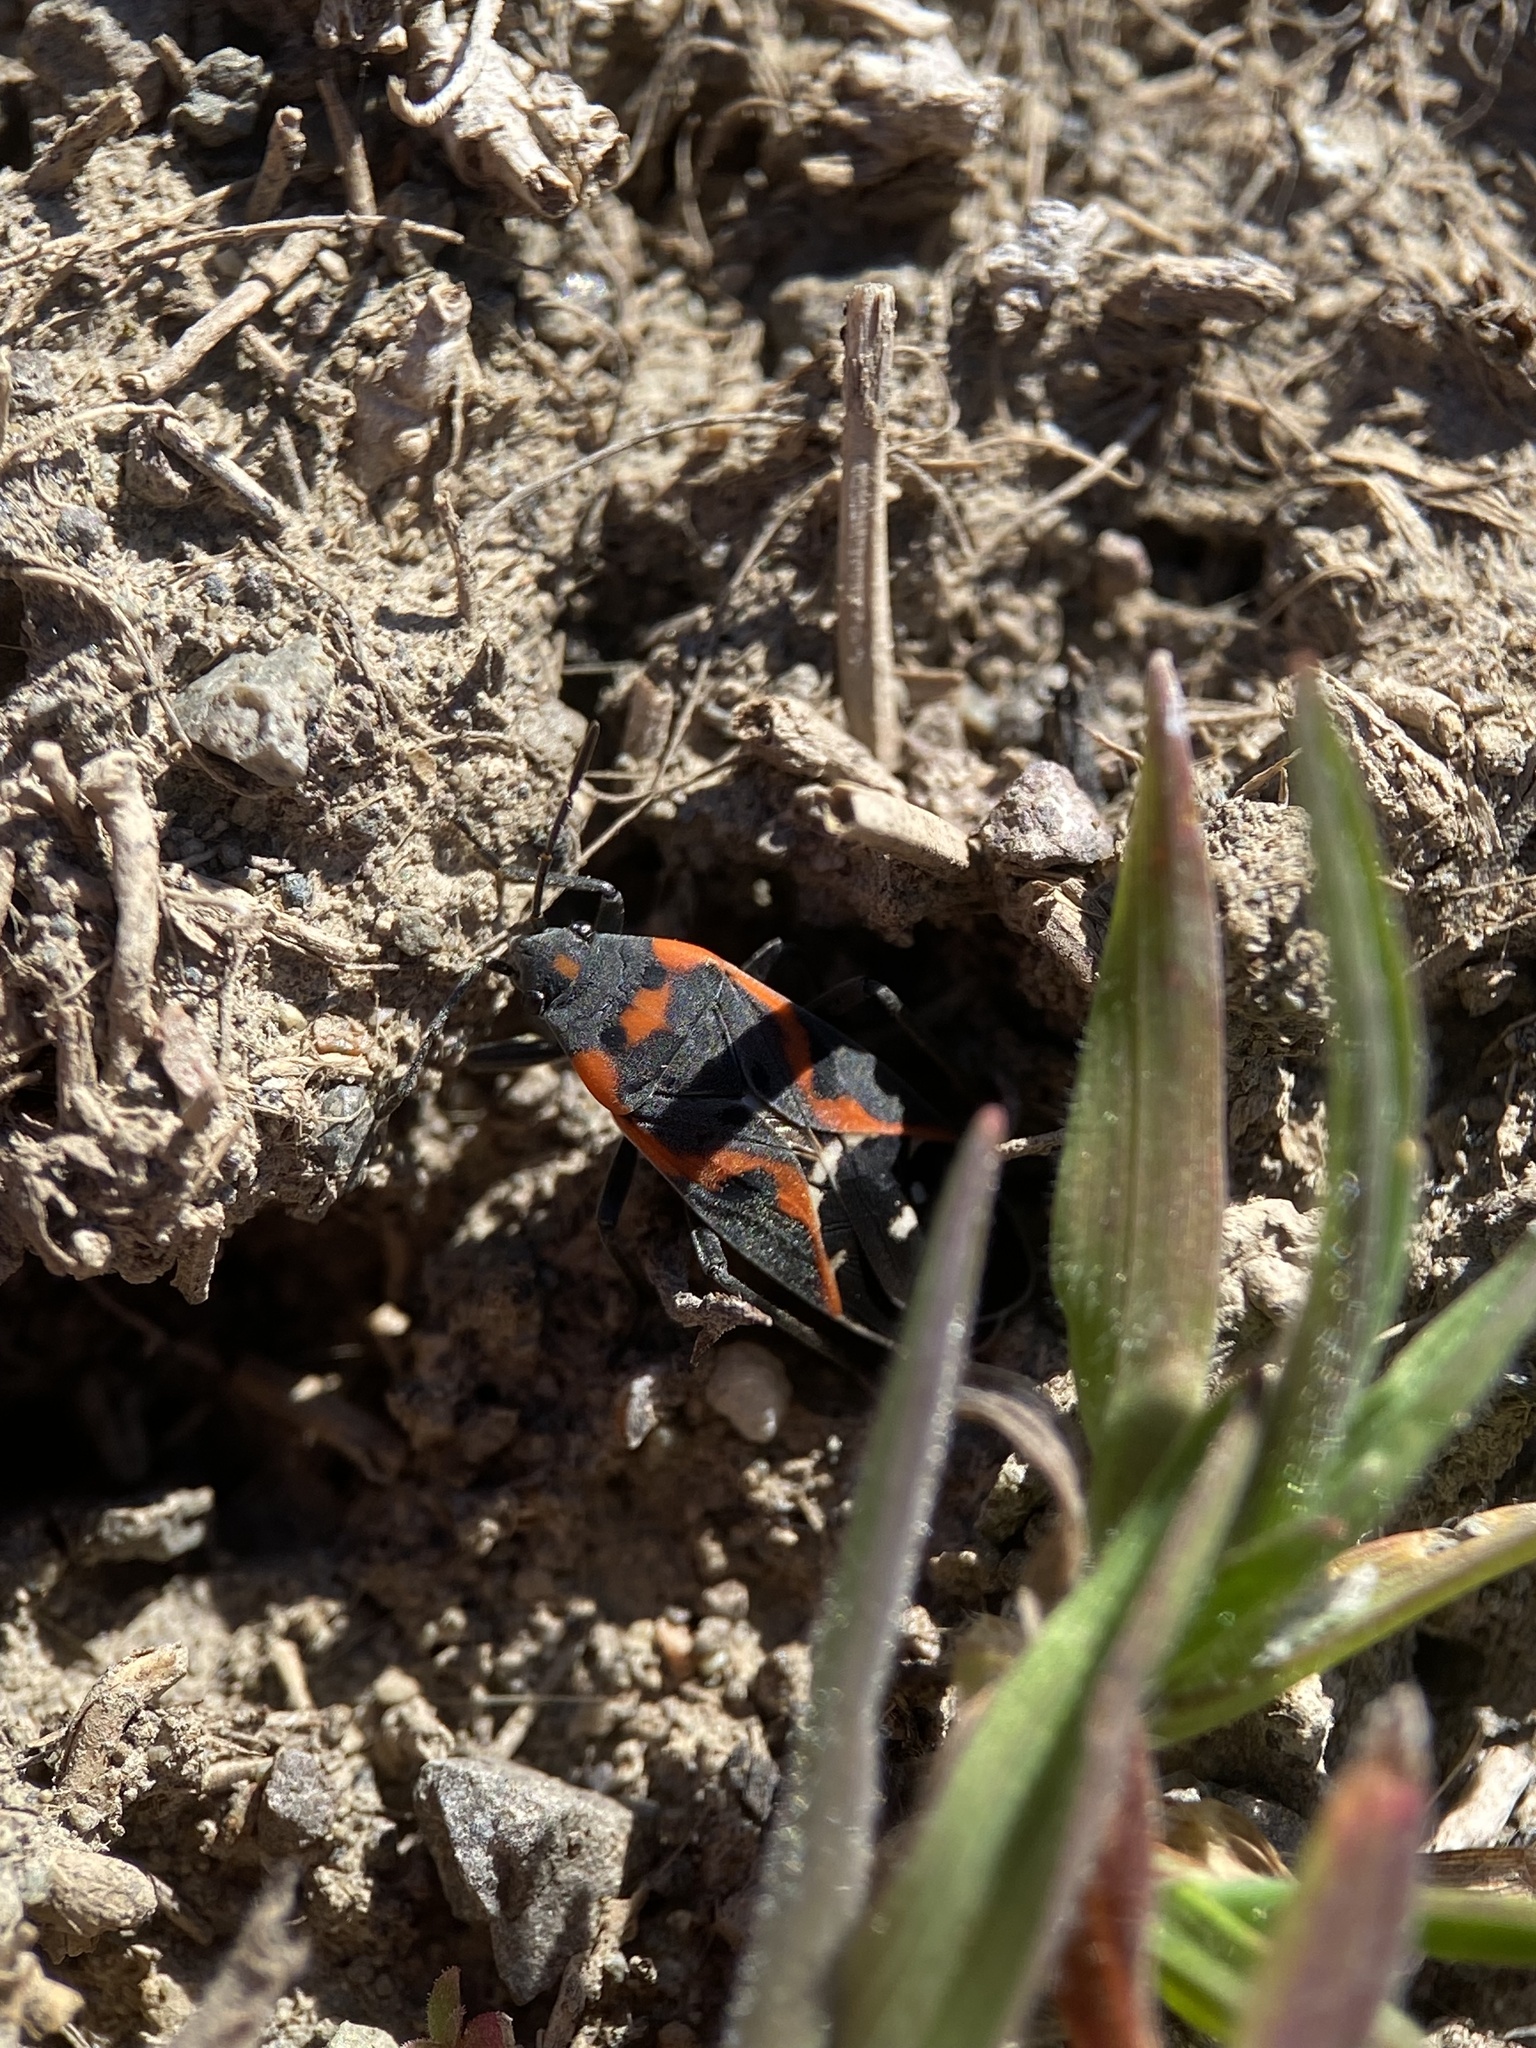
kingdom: Animalia
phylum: Arthropoda
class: Insecta
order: Hemiptera
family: Lygaeidae
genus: Lygaeus
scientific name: Lygaeus kalmii
